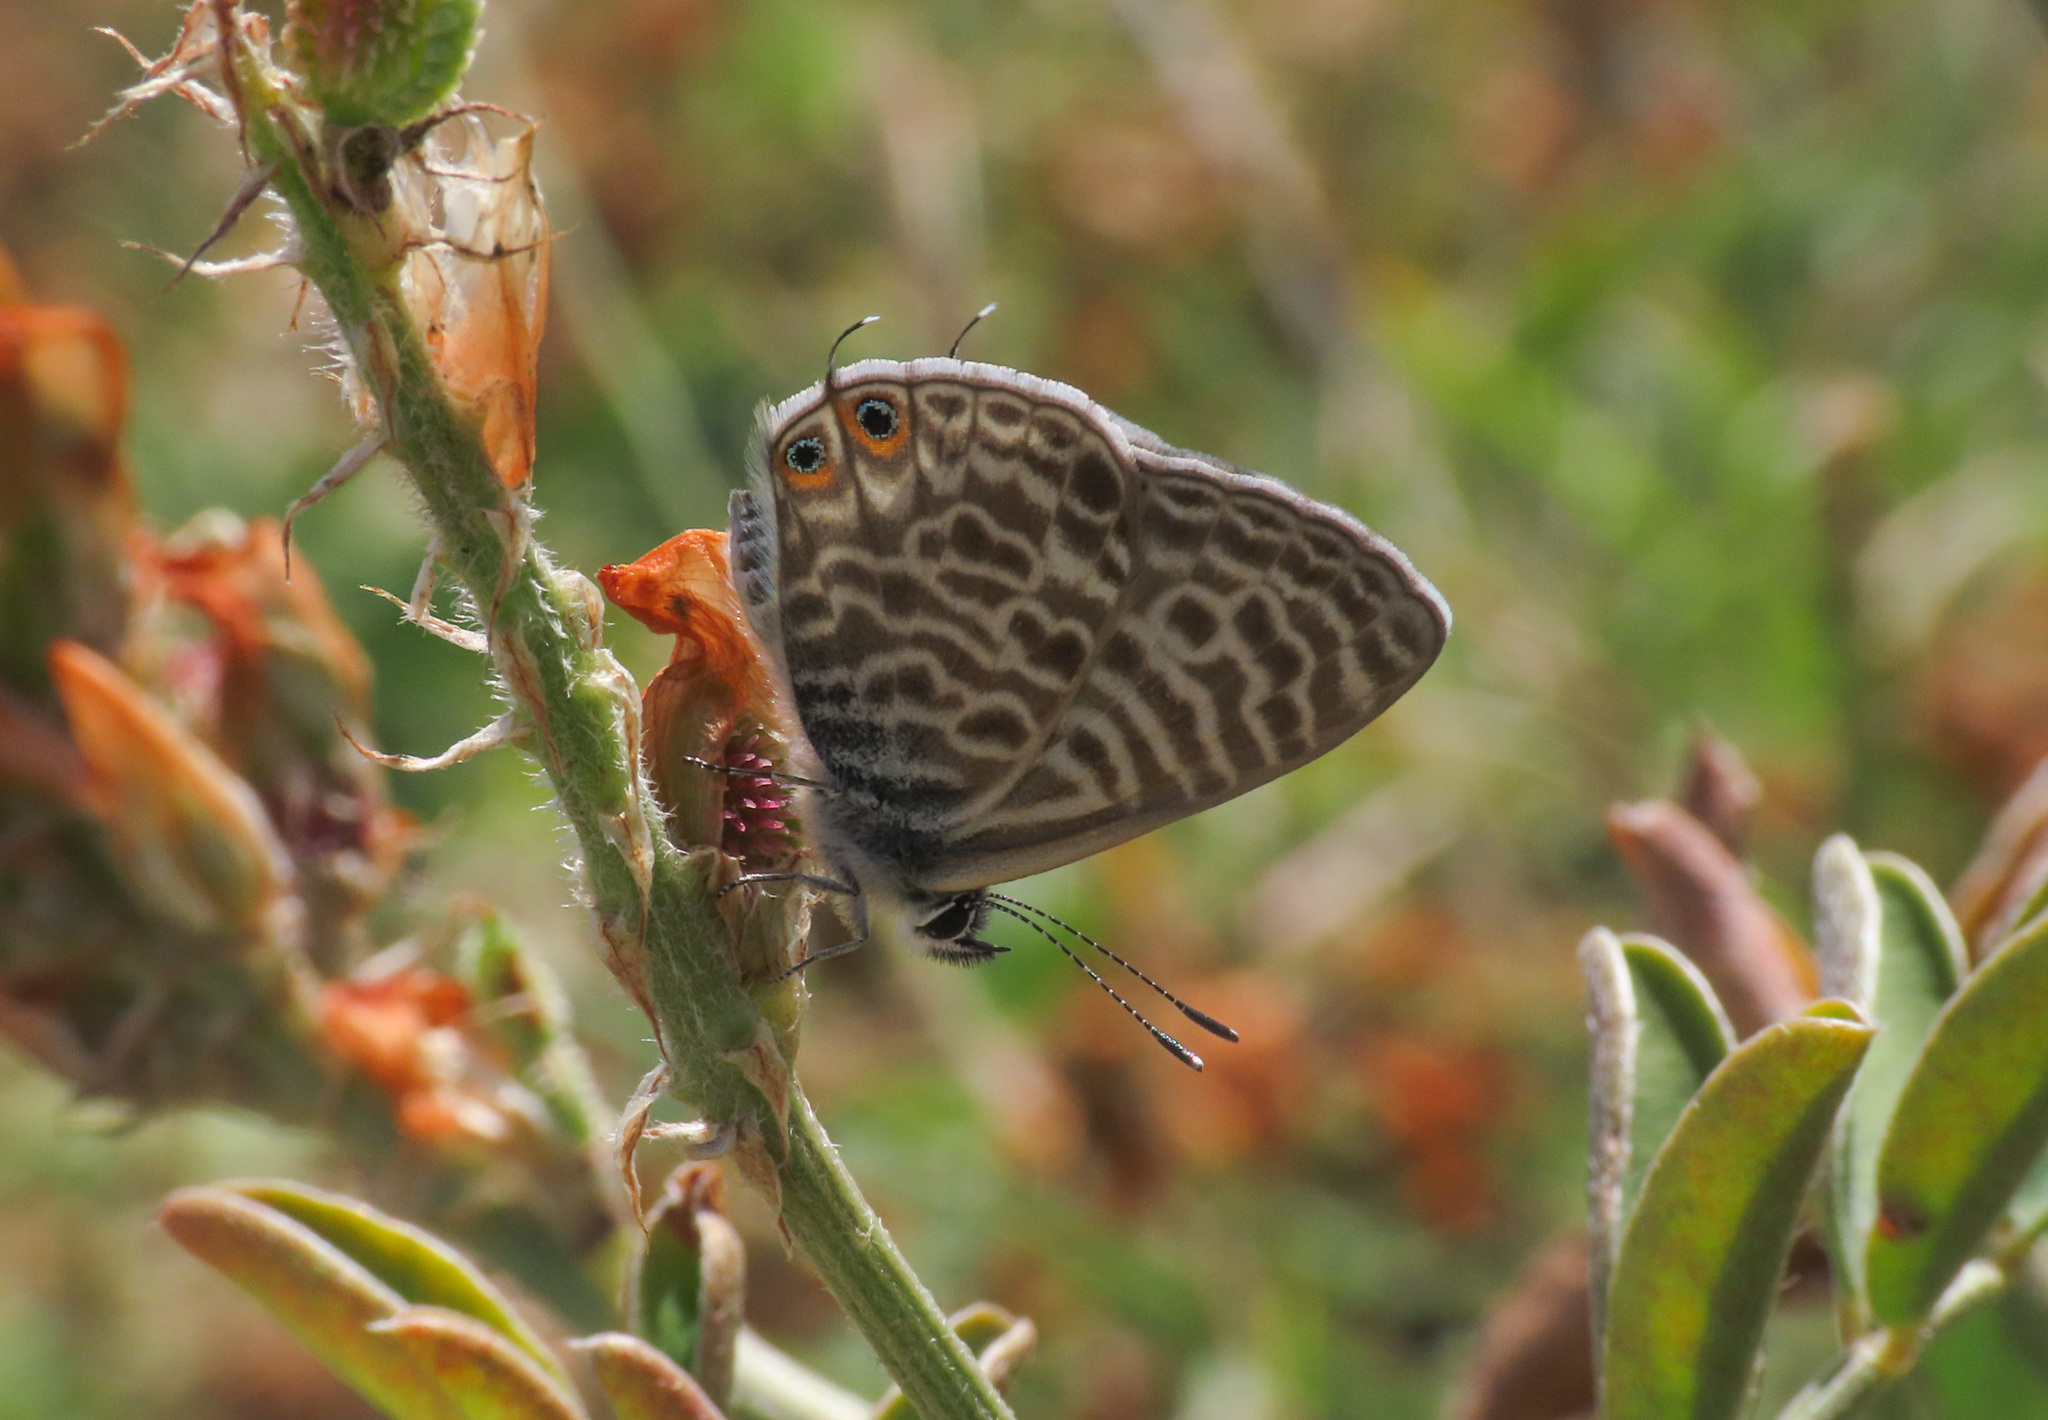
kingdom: Animalia
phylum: Arthropoda
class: Insecta
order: Lepidoptera
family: Lycaenidae
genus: Leptotes
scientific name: Leptotes pirithous
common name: Lang's short-tailed blue
